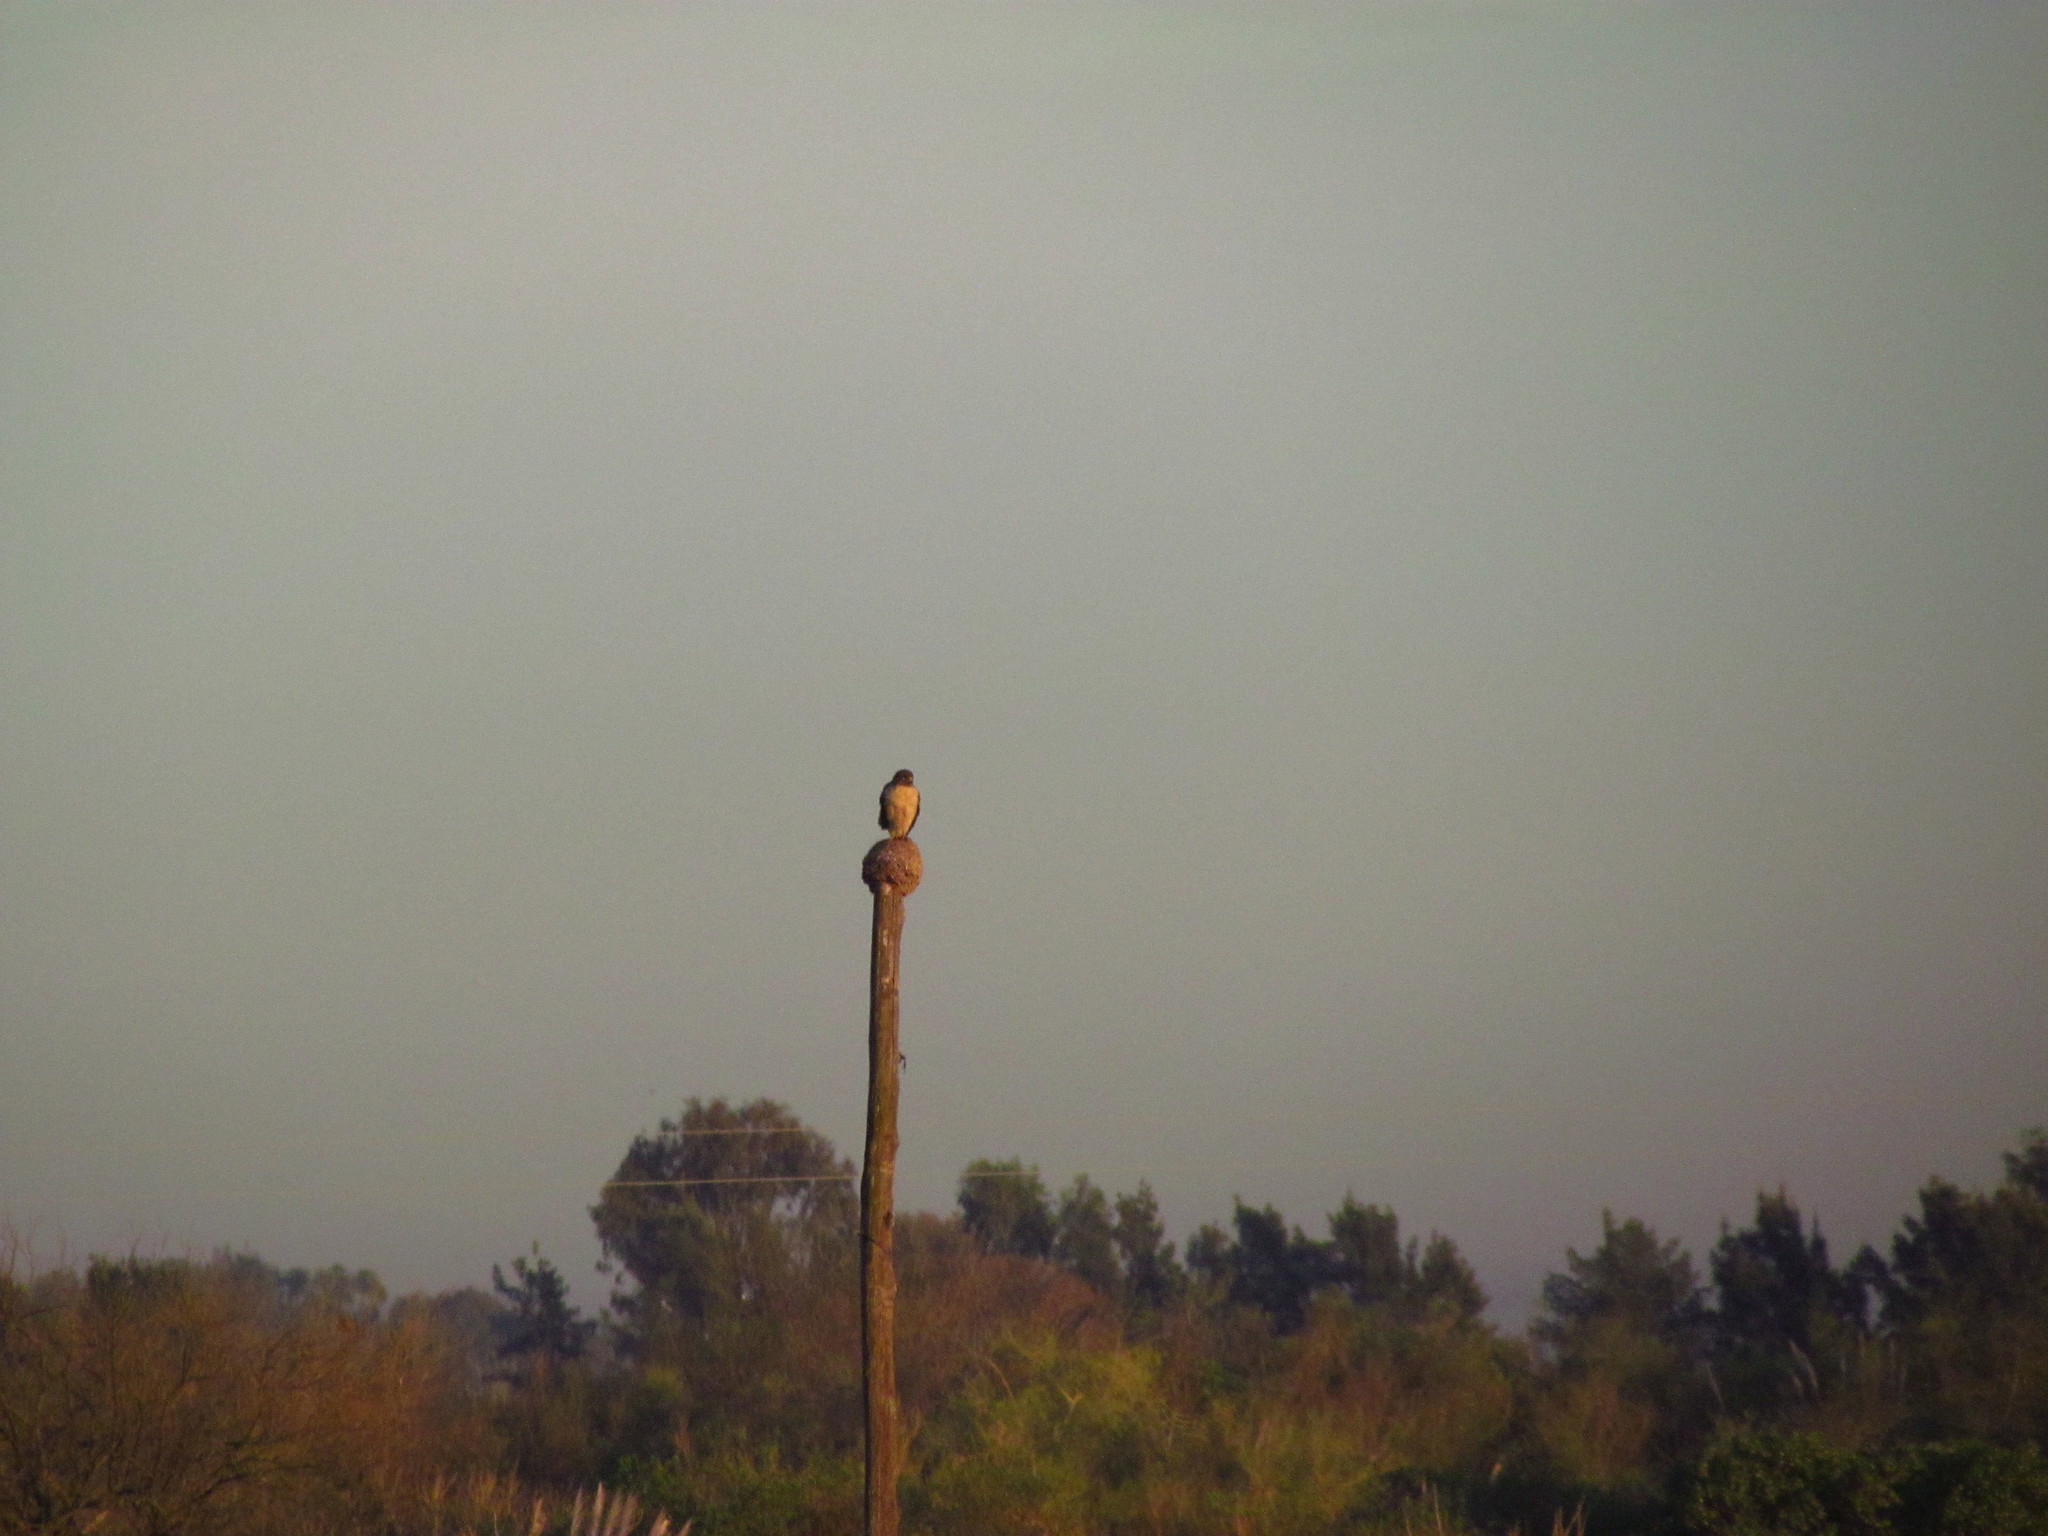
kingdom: Animalia
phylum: Chordata
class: Aves
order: Accipitriformes
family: Accipitridae
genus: Rupornis
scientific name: Rupornis magnirostris
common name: Roadside hawk
